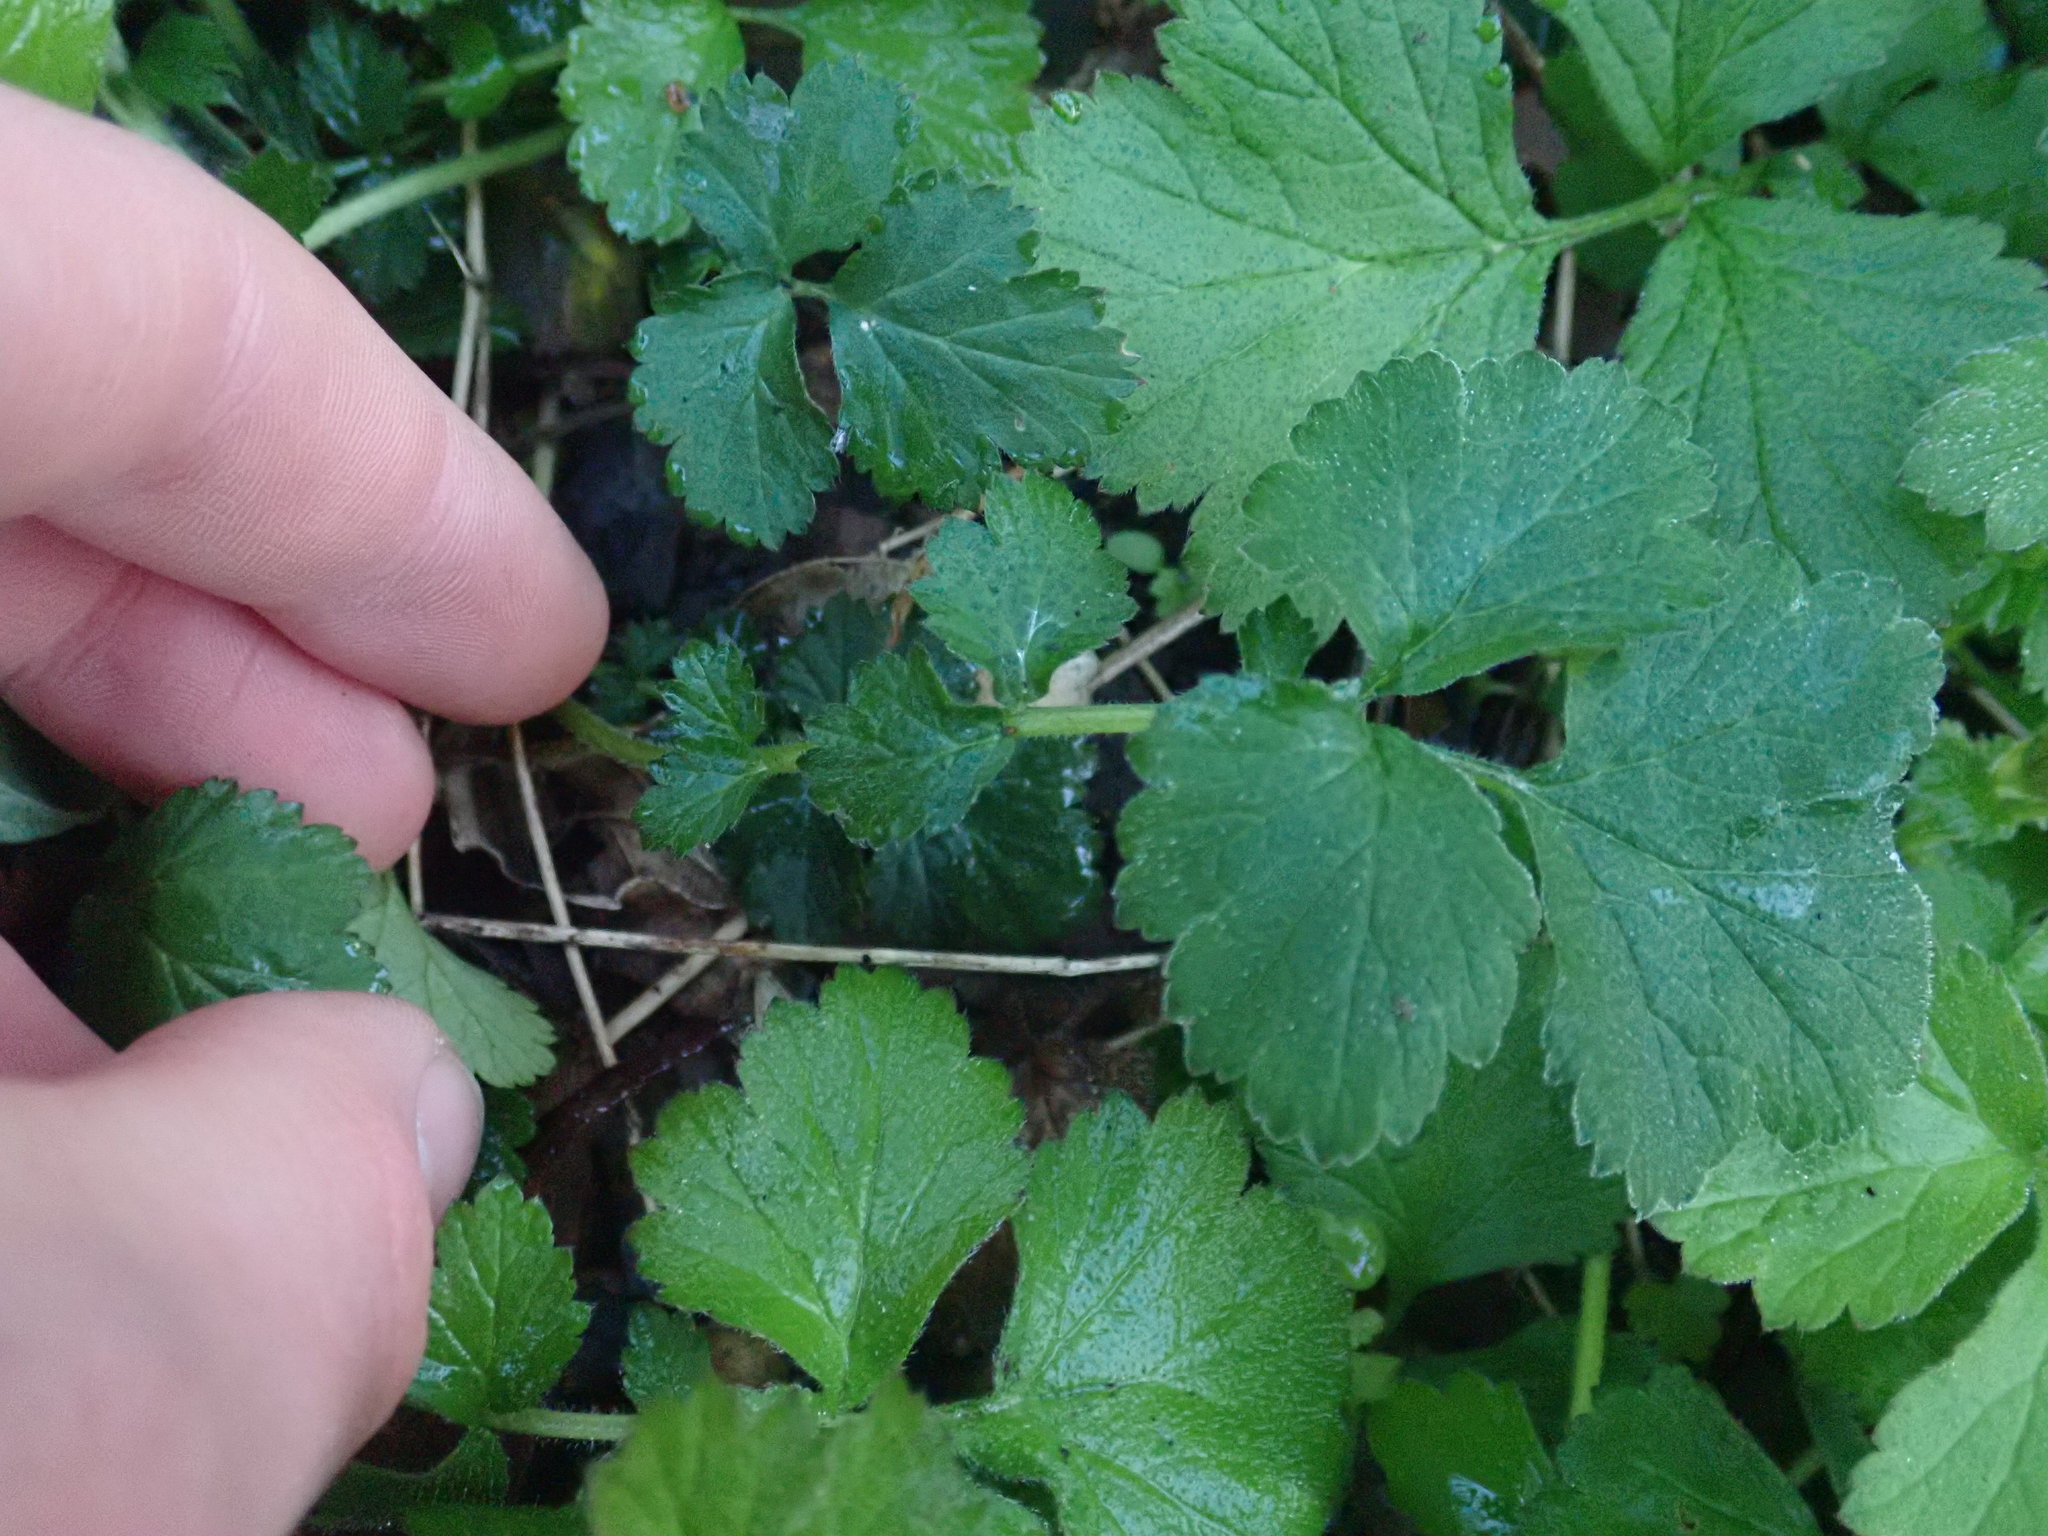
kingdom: Plantae
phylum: Tracheophyta
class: Magnoliopsida
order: Rosales
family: Rosaceae
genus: Geum
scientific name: Geum urbanum
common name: Wood avens
